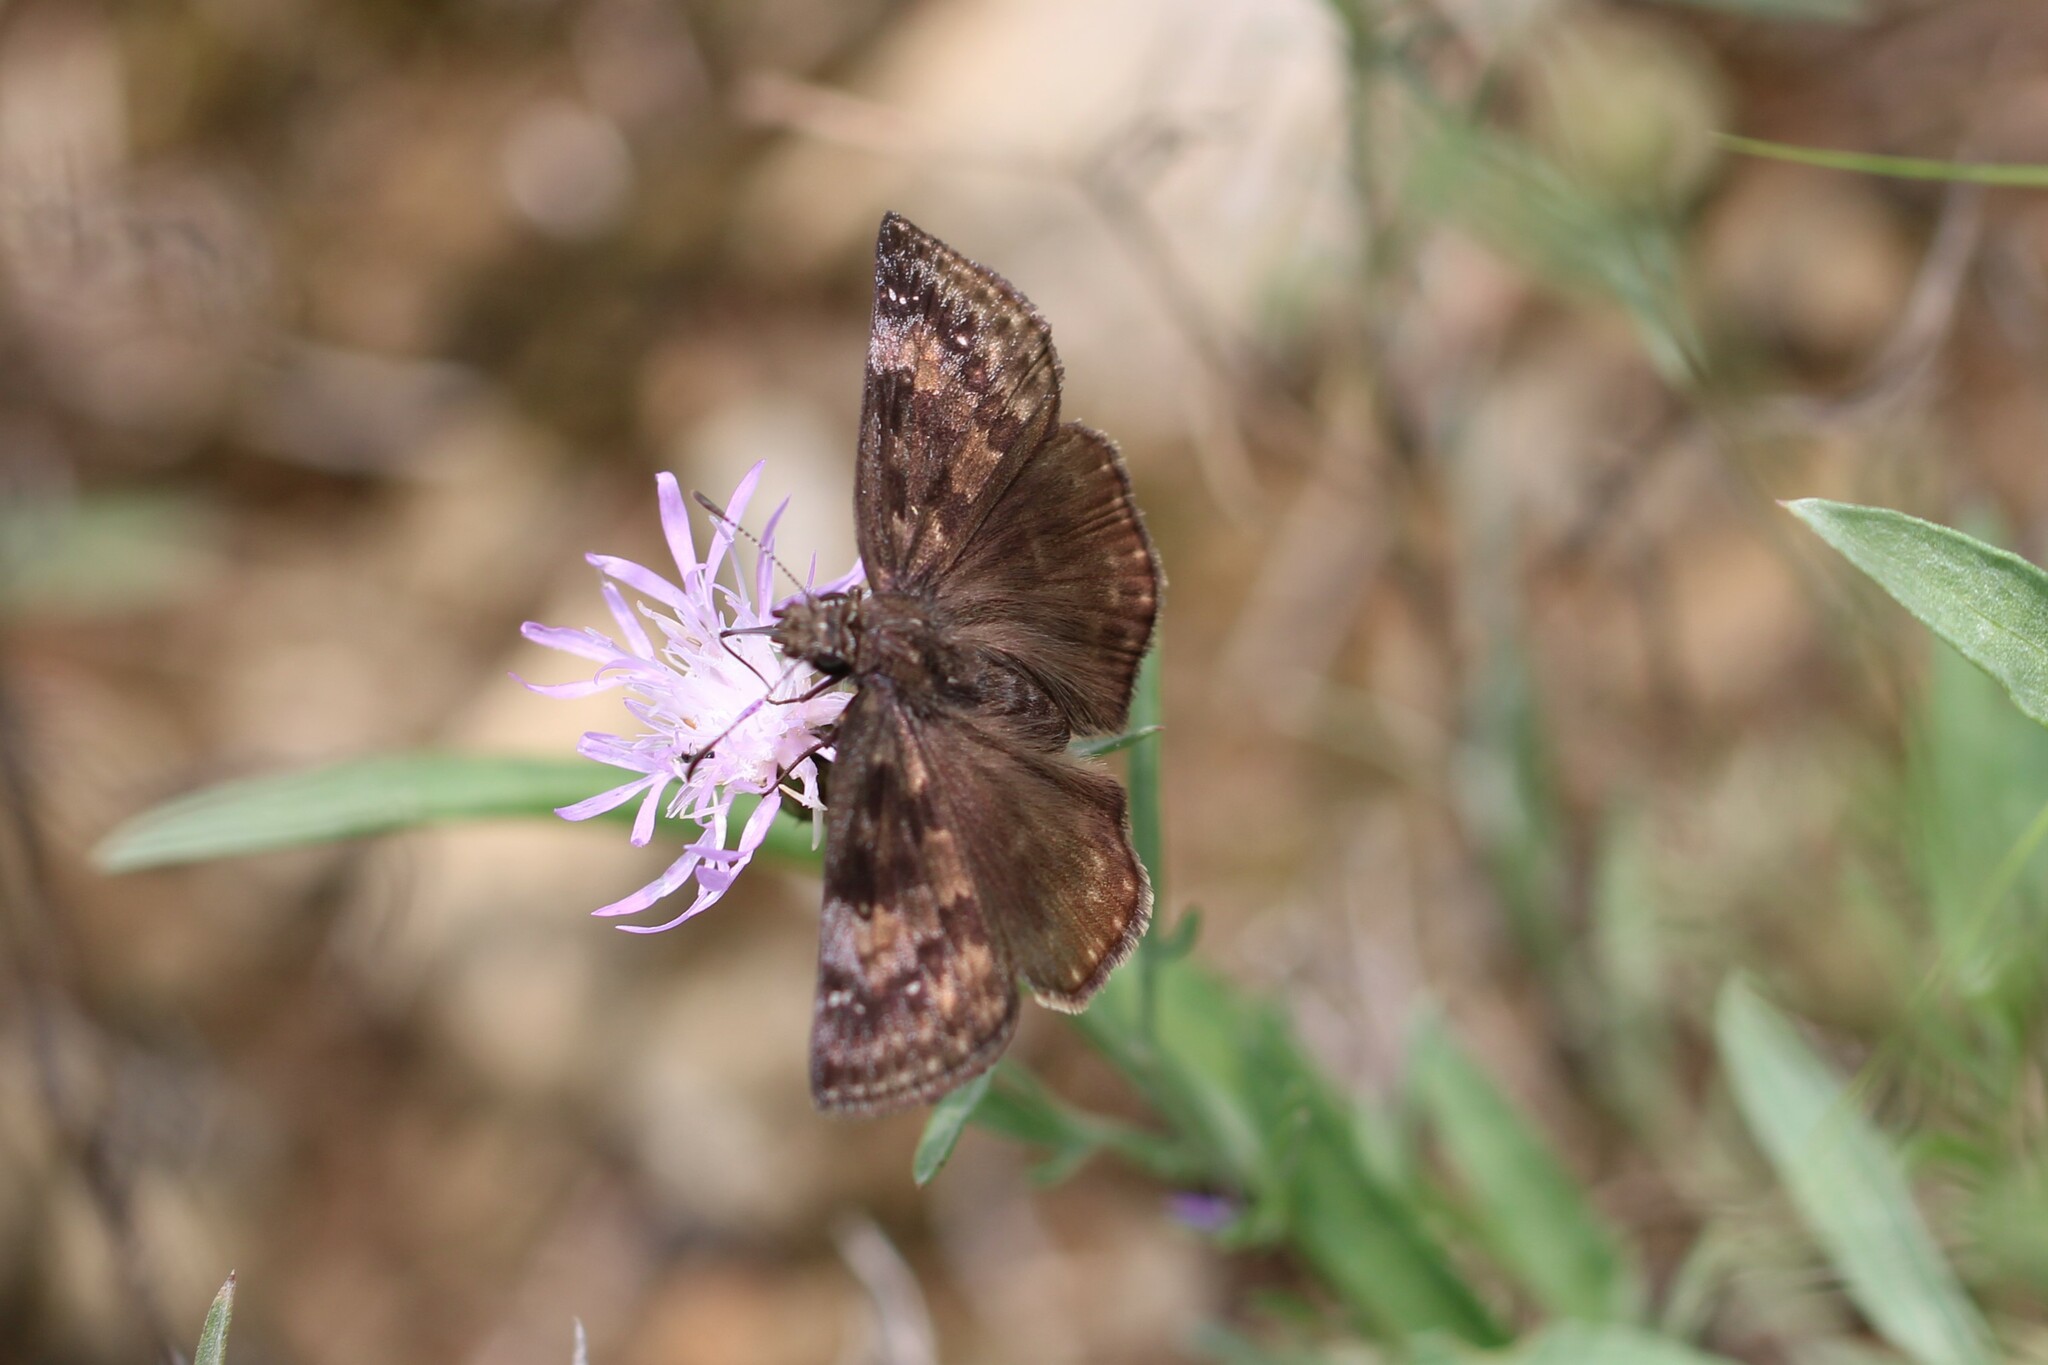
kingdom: Animalia
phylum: Arthropoda
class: Insecta
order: Lepidoptera
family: Hesperiidae
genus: Erynnis
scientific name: Erynnis baptisiae
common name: Wild indigo duskywing
